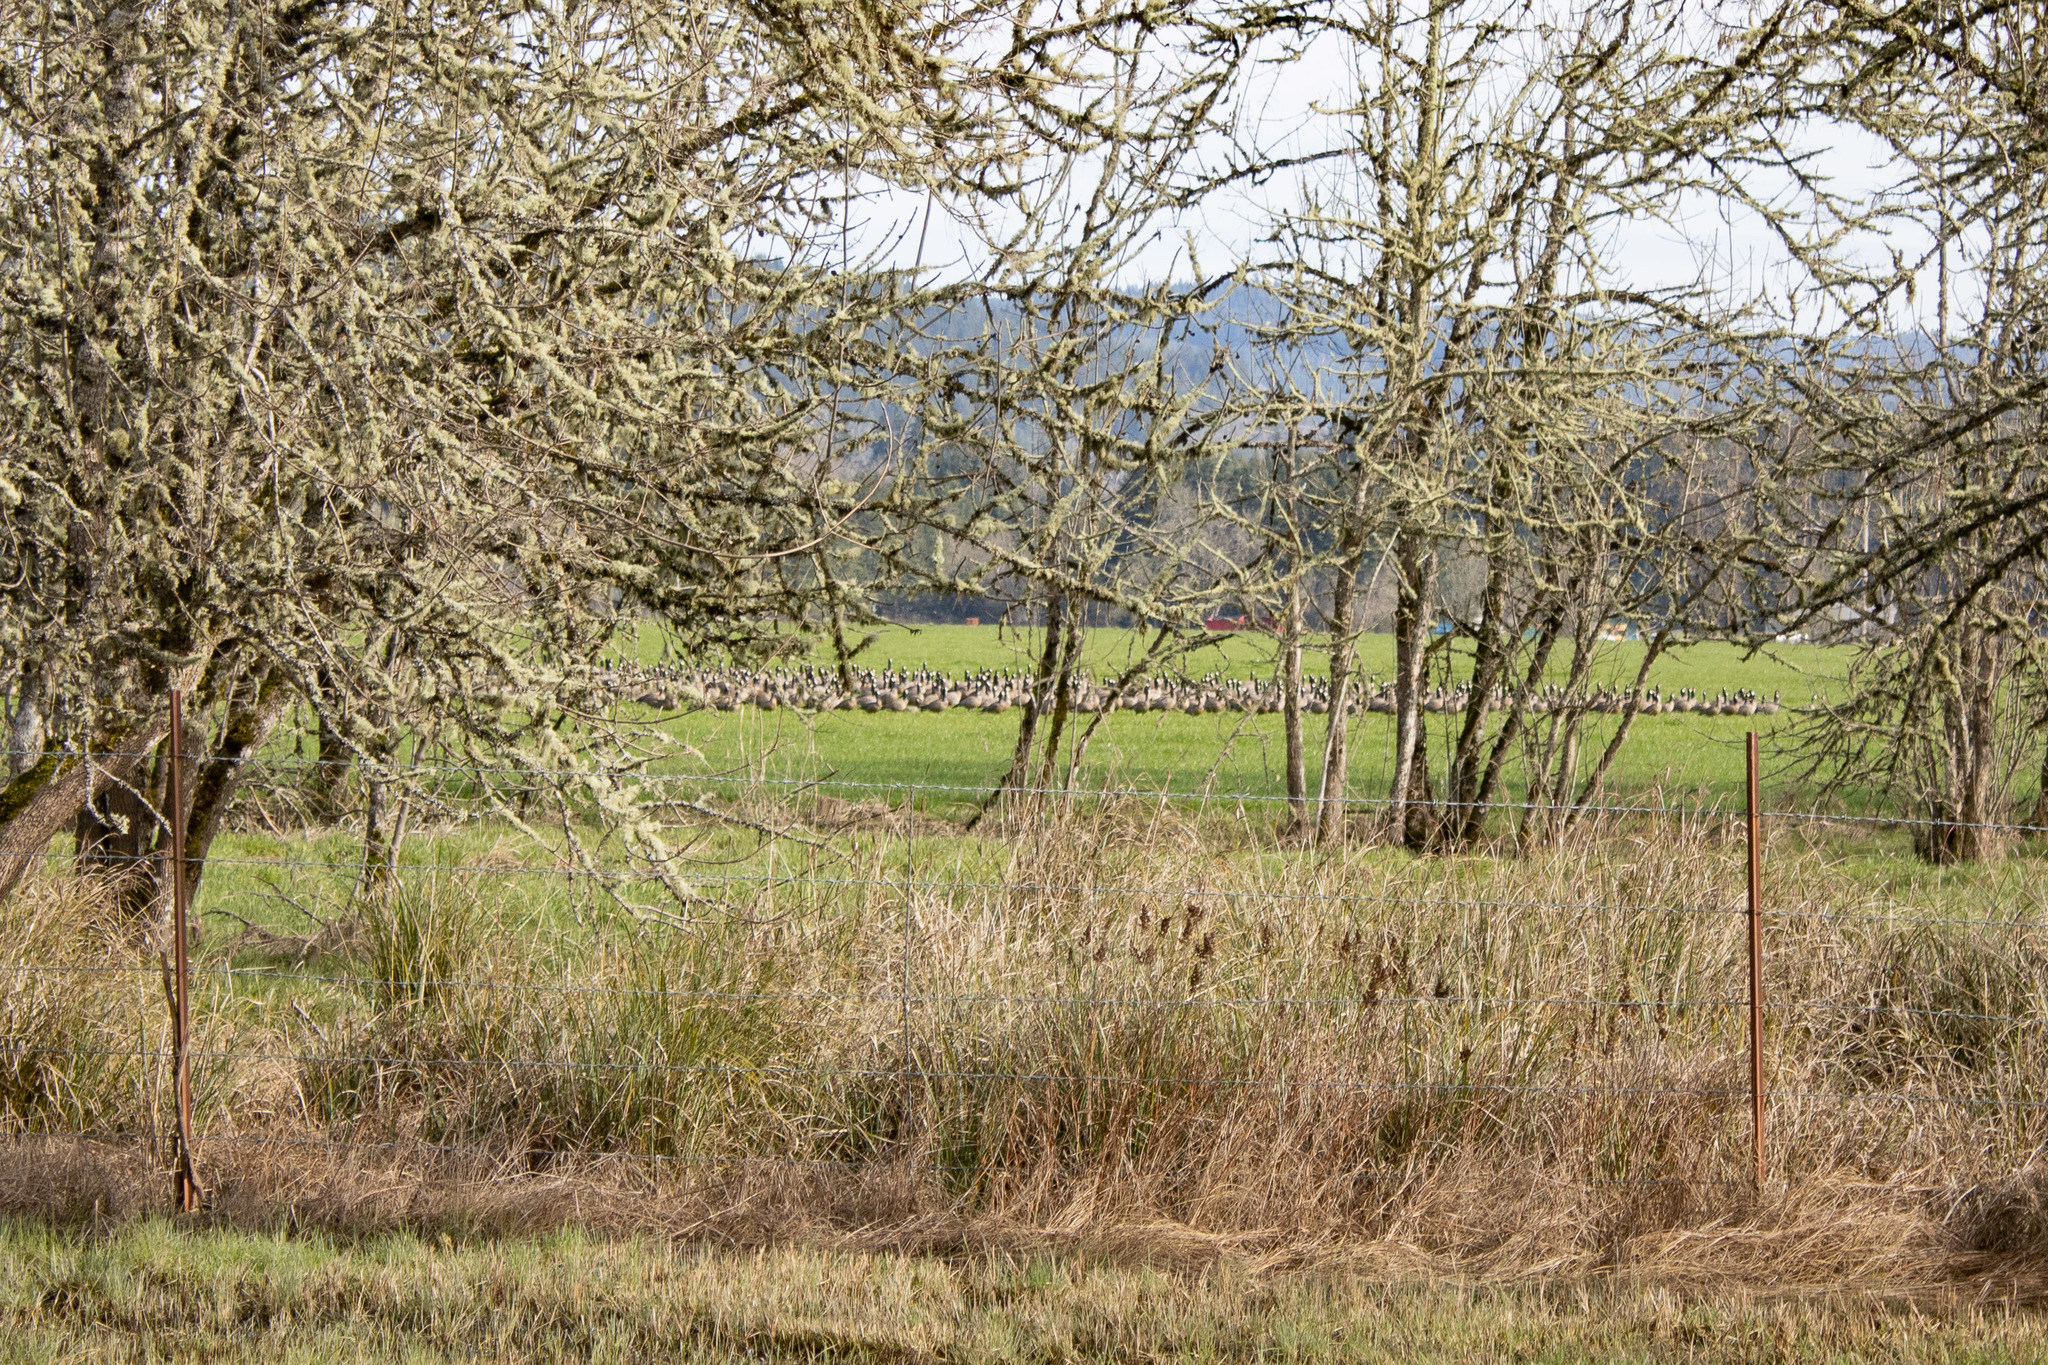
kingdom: Animalia
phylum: Chordata
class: Aves
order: Anseriformes
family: Anatidae
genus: Branta
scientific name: Branta canadensis
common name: Canada goose
